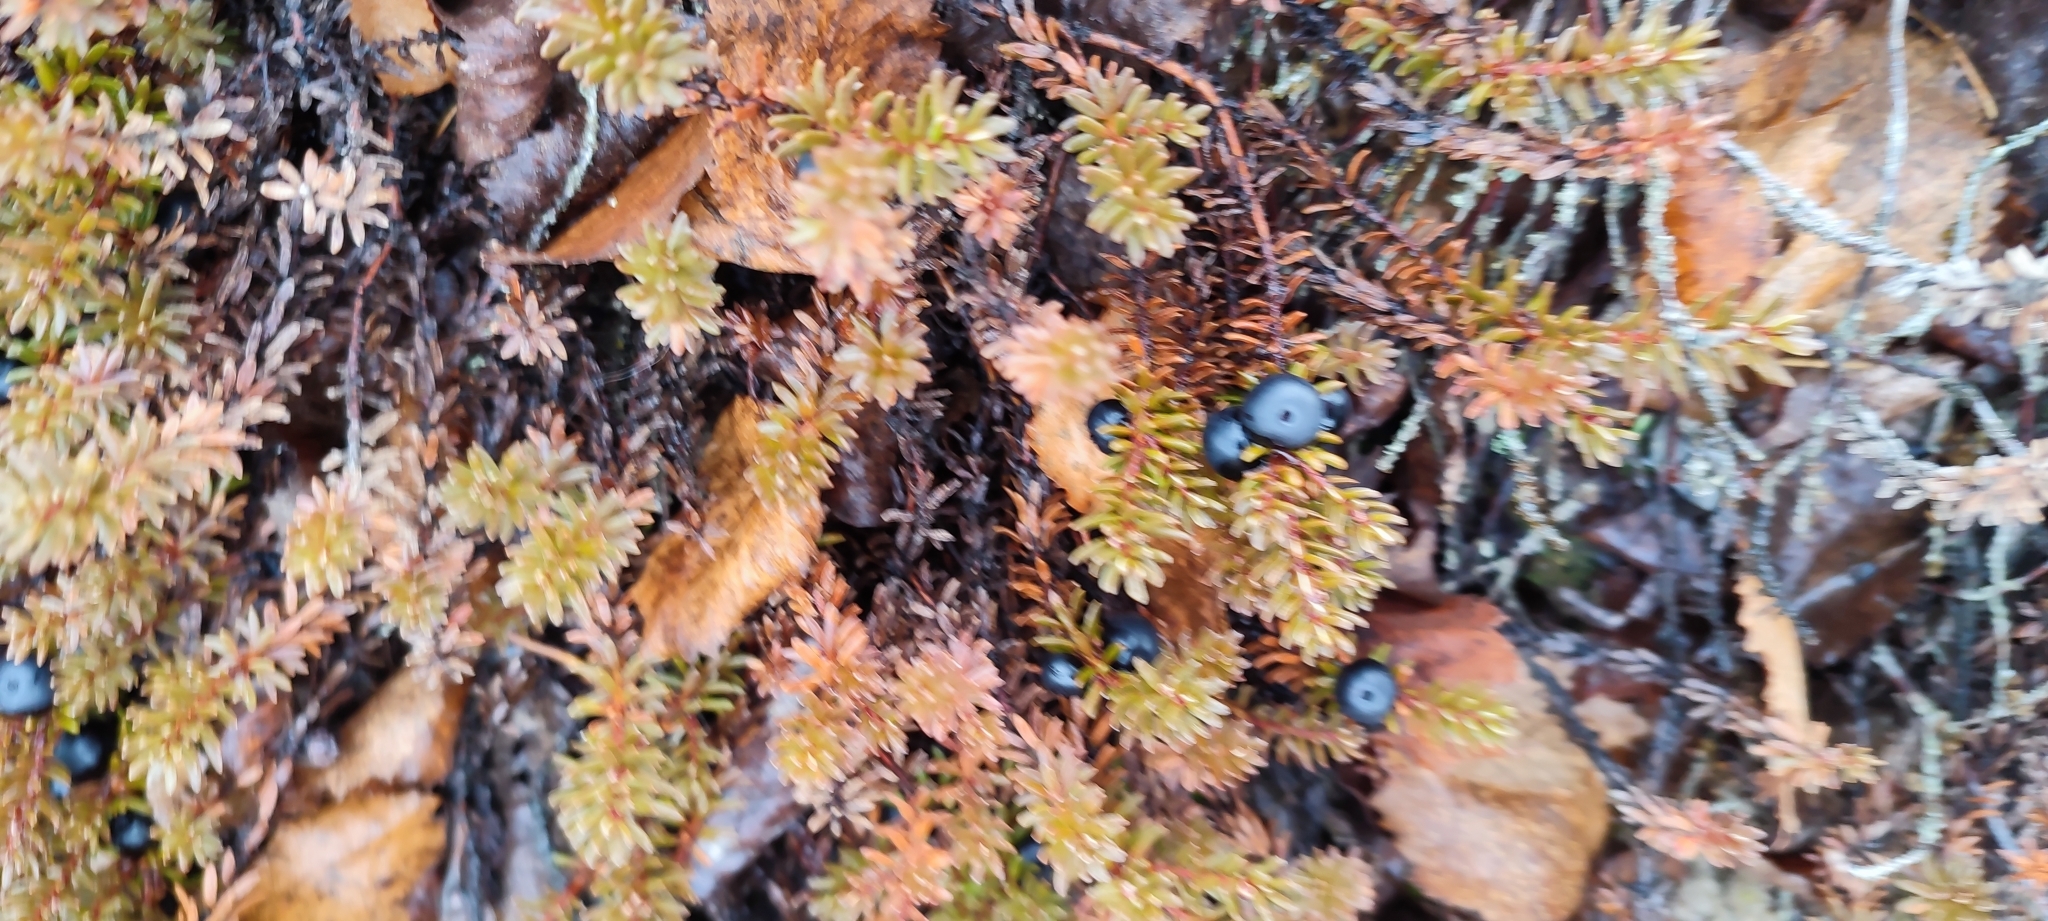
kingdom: Plantae
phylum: Tracheophyta
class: Magnoliopsida
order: Ericales
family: Ericaceae
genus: Empetrum
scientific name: Empetrum nigrum
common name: Black crowberry
